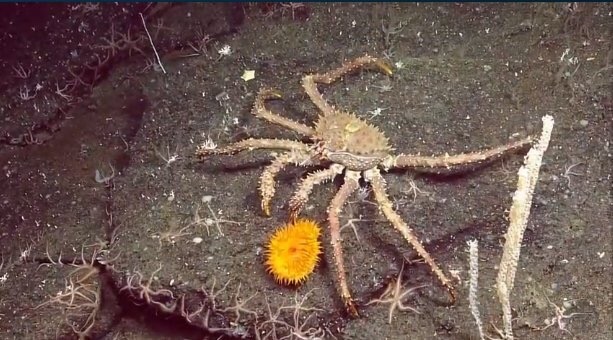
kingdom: Animalia
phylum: Arthropoda
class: Malacostraca
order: Decapoda
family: Lithodidae
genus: Lithodes
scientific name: Lithodes aequispinus
